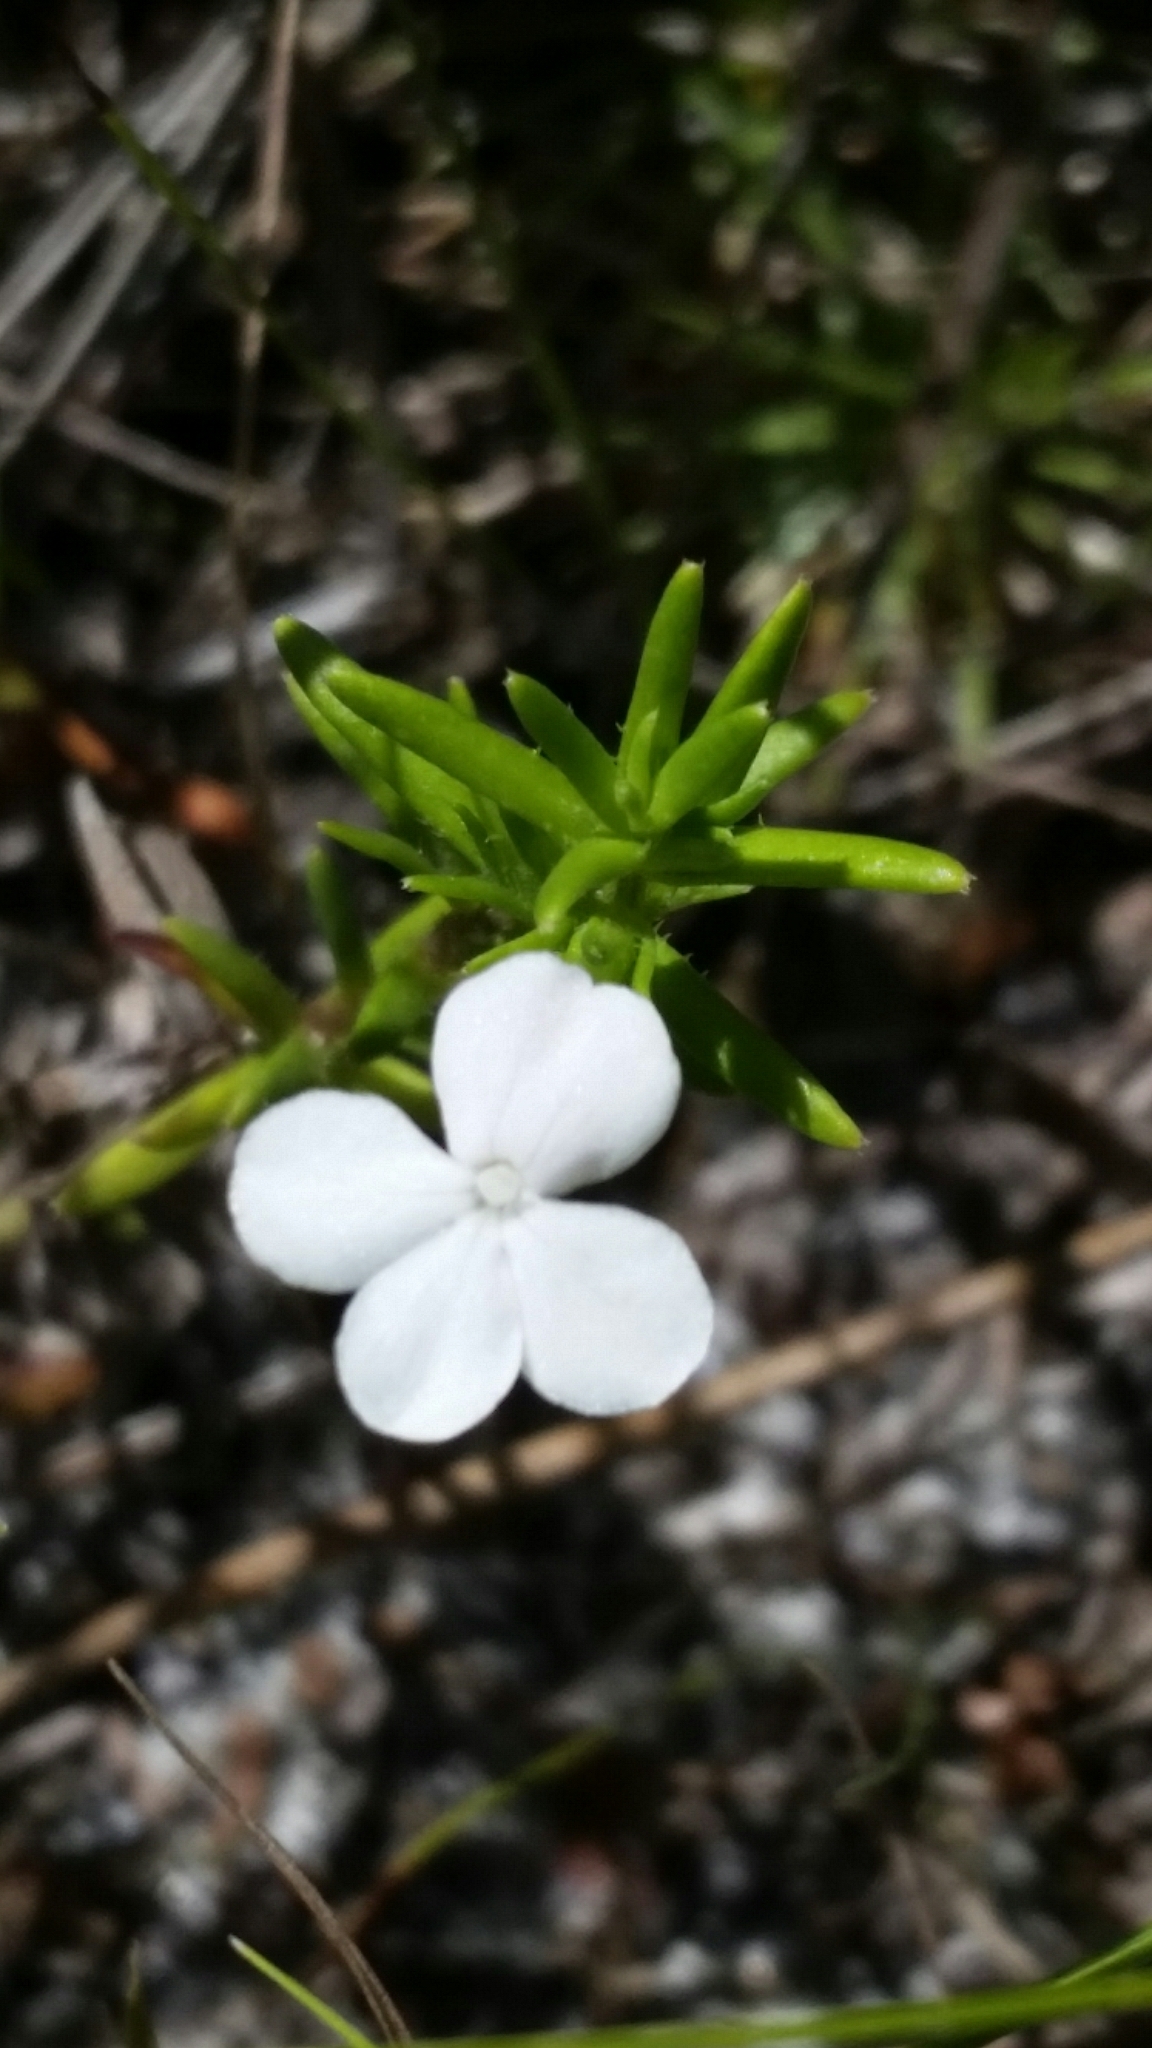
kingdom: Plantae
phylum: Tracheophyta
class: Magnoliopsida
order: Lamiales
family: Plantaginaceae
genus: Gratiola
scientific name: Gratiola hispida
